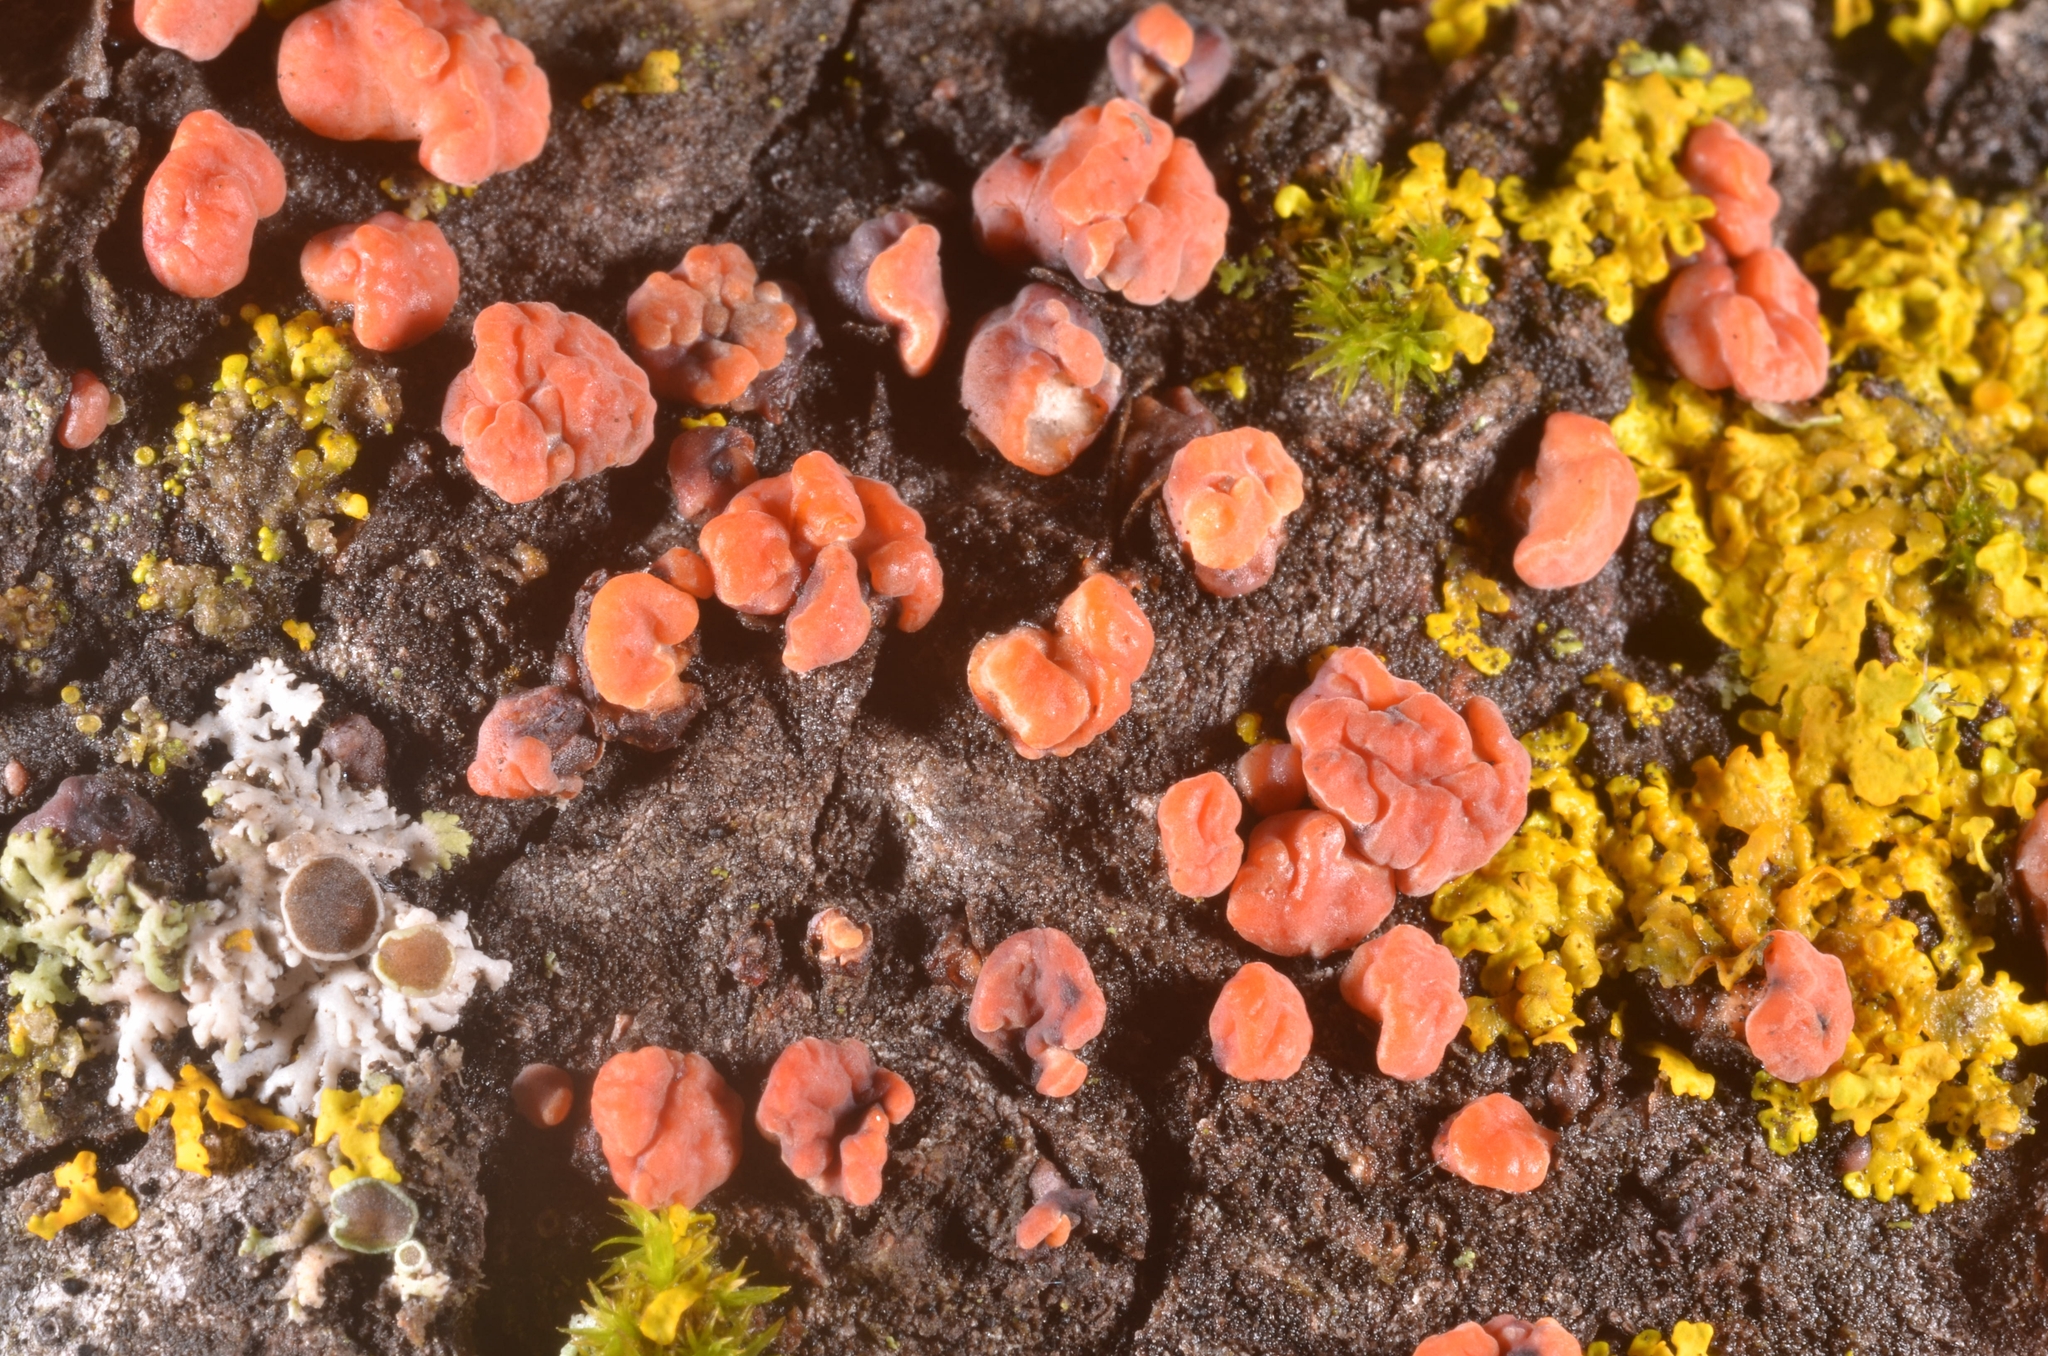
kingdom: Fungi
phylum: Basidiomycota
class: Agaricomycetes
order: Russulales
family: Peniophoraceae
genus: Peniophora
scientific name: Peniophora rufa
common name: Red tree brain fungus
